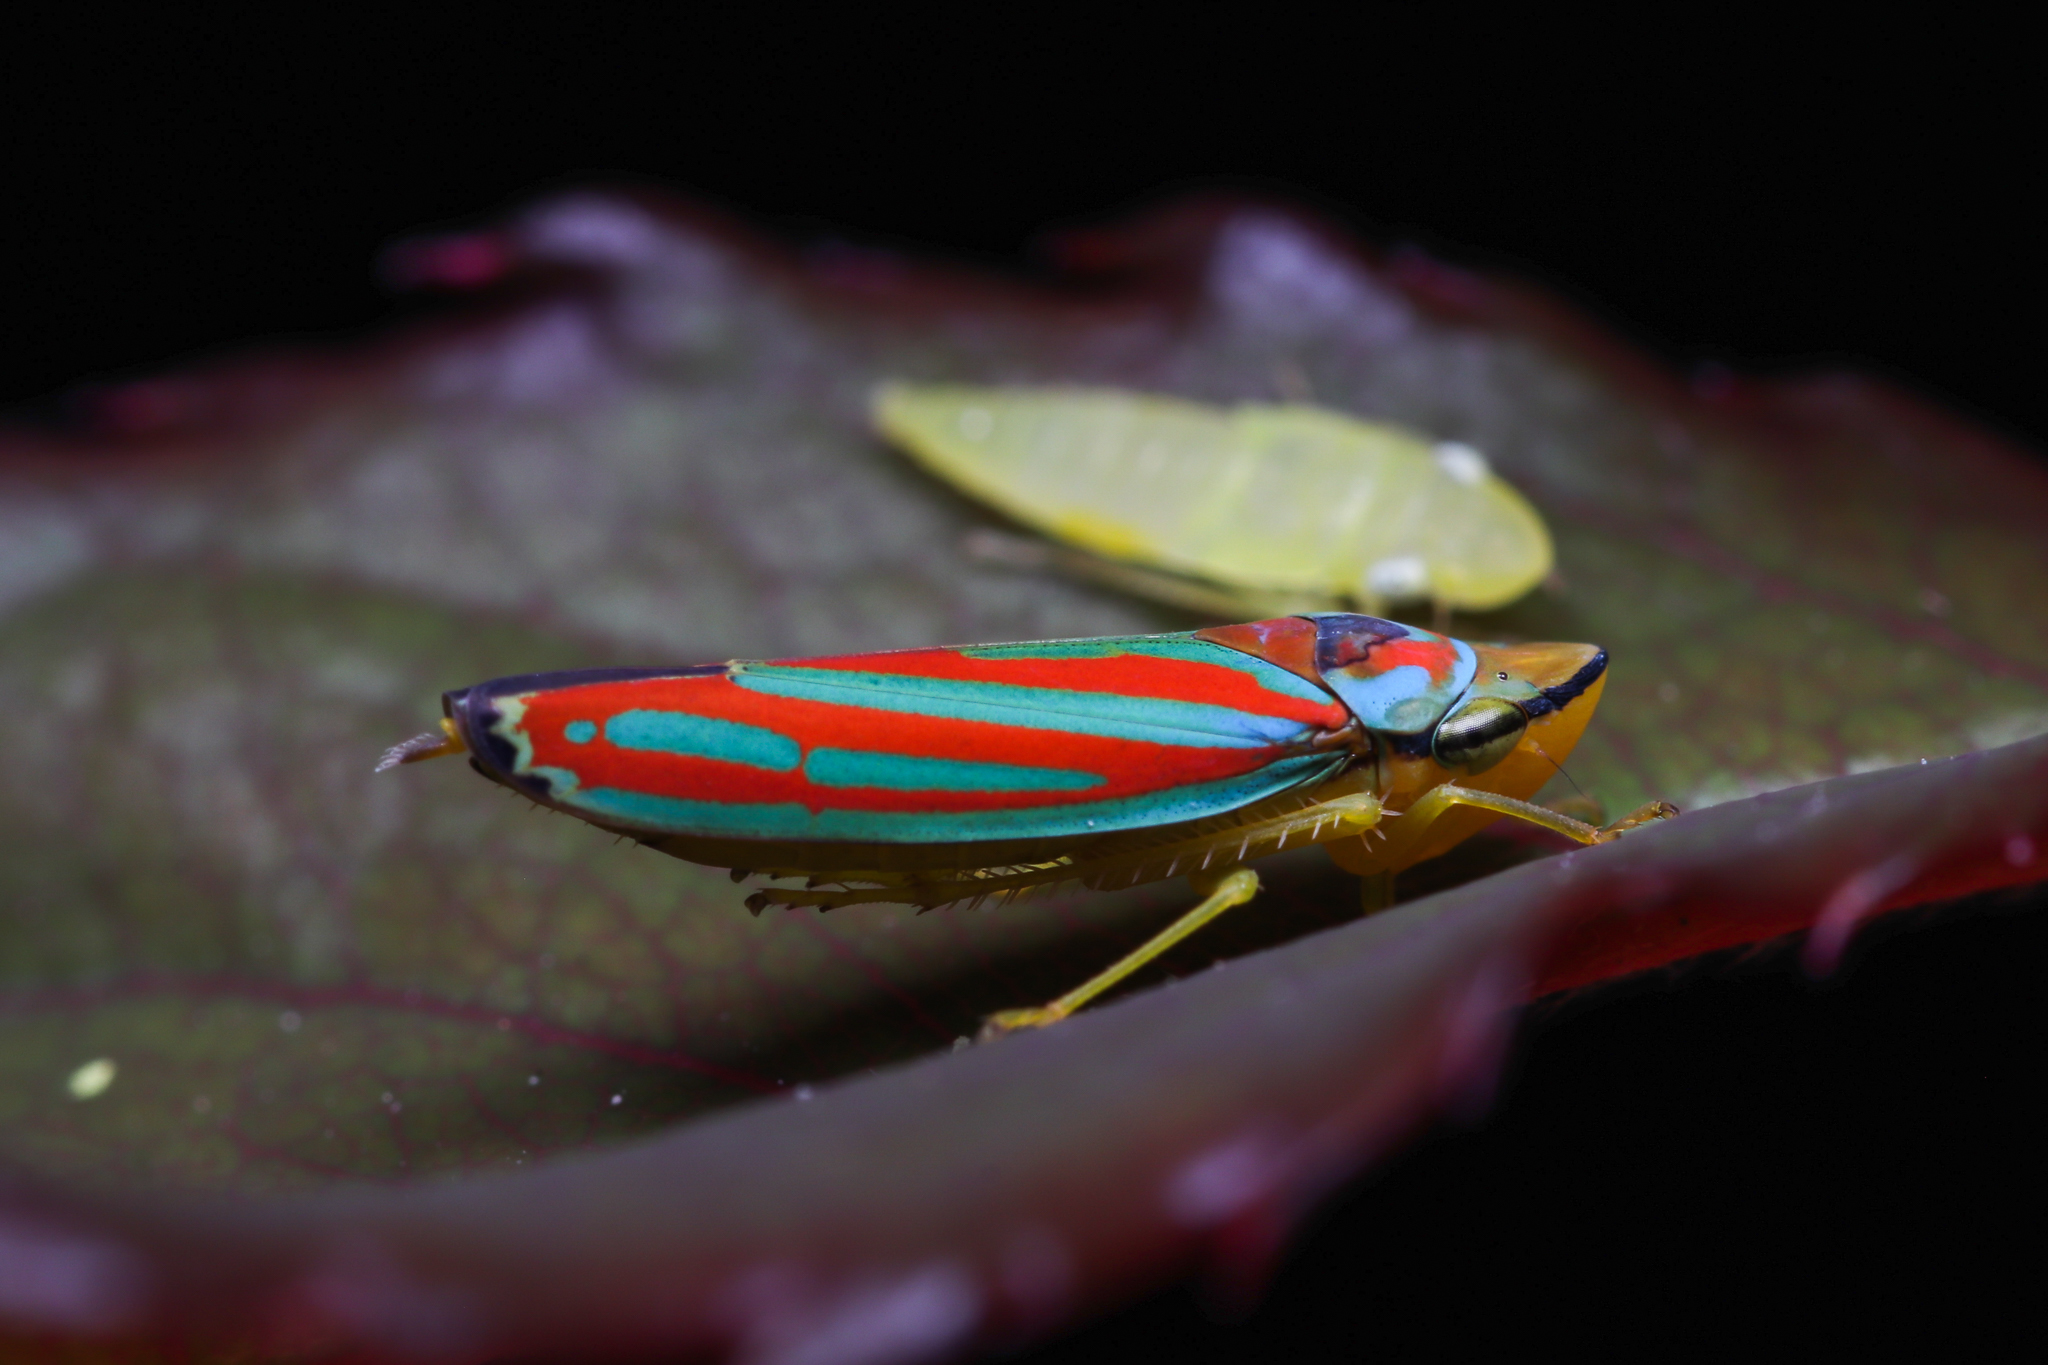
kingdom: Animalia
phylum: Arthropoda
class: Insecta
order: Hemiptera
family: Cicadellidae
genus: Graphocephala
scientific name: Graphocephala coccinea
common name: Candy-striped leafhopper
